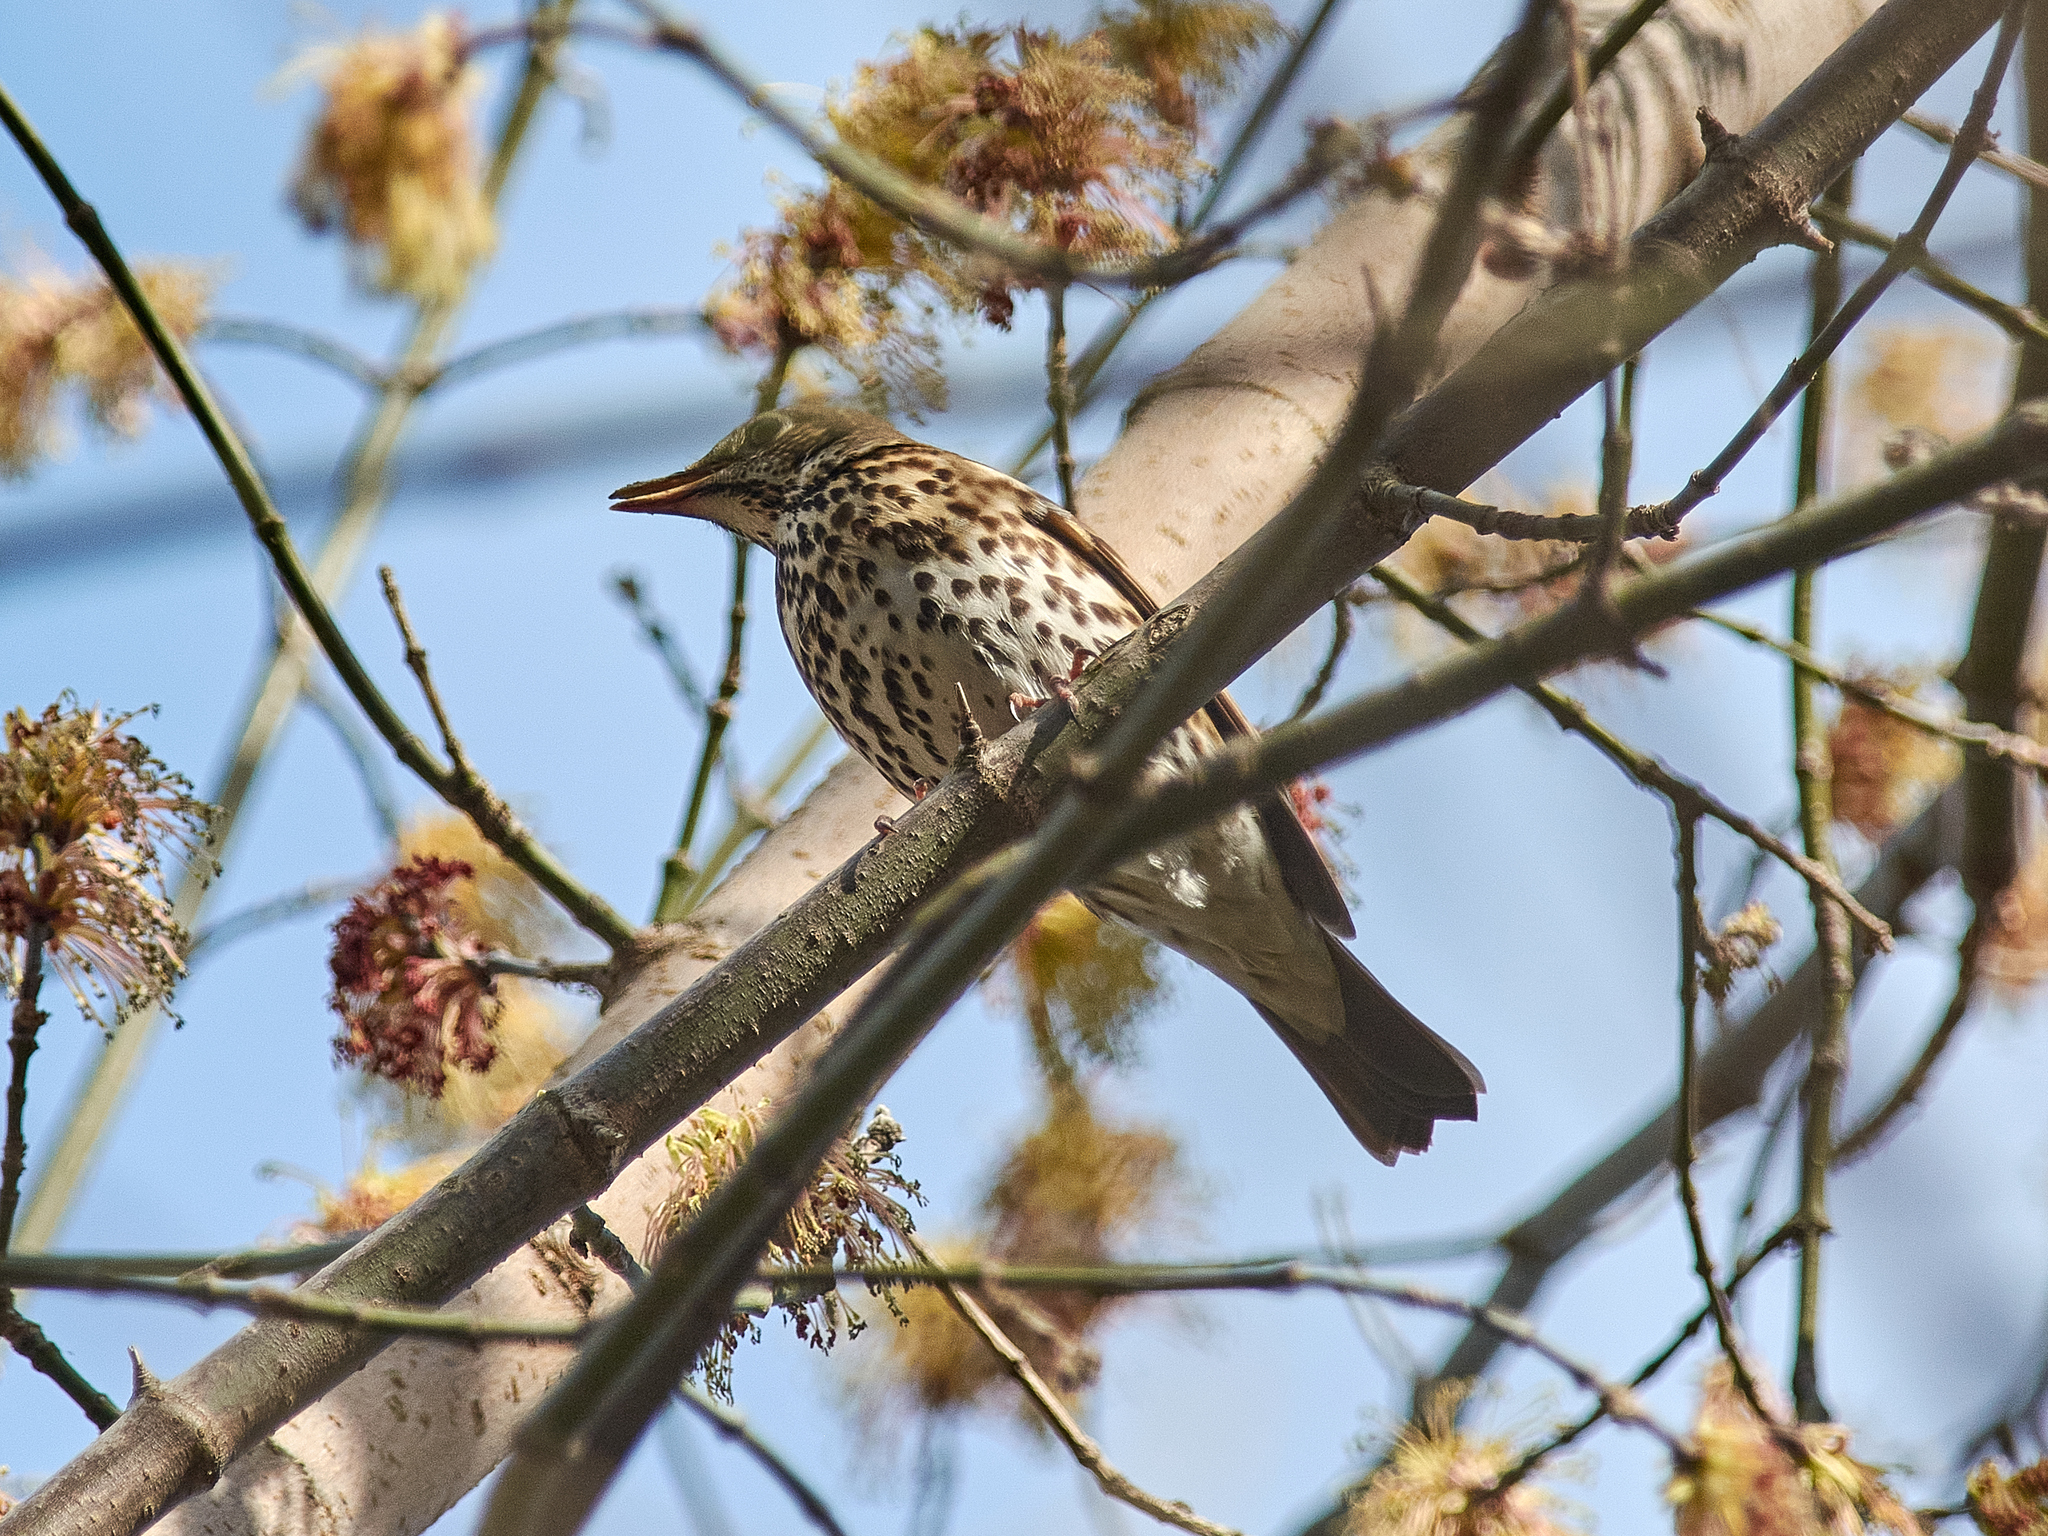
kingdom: Animalia
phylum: Chordata
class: Aves
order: Passeriformes
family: Turdidae
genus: Turdus
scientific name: Turdus philomelos
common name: Song thrush
